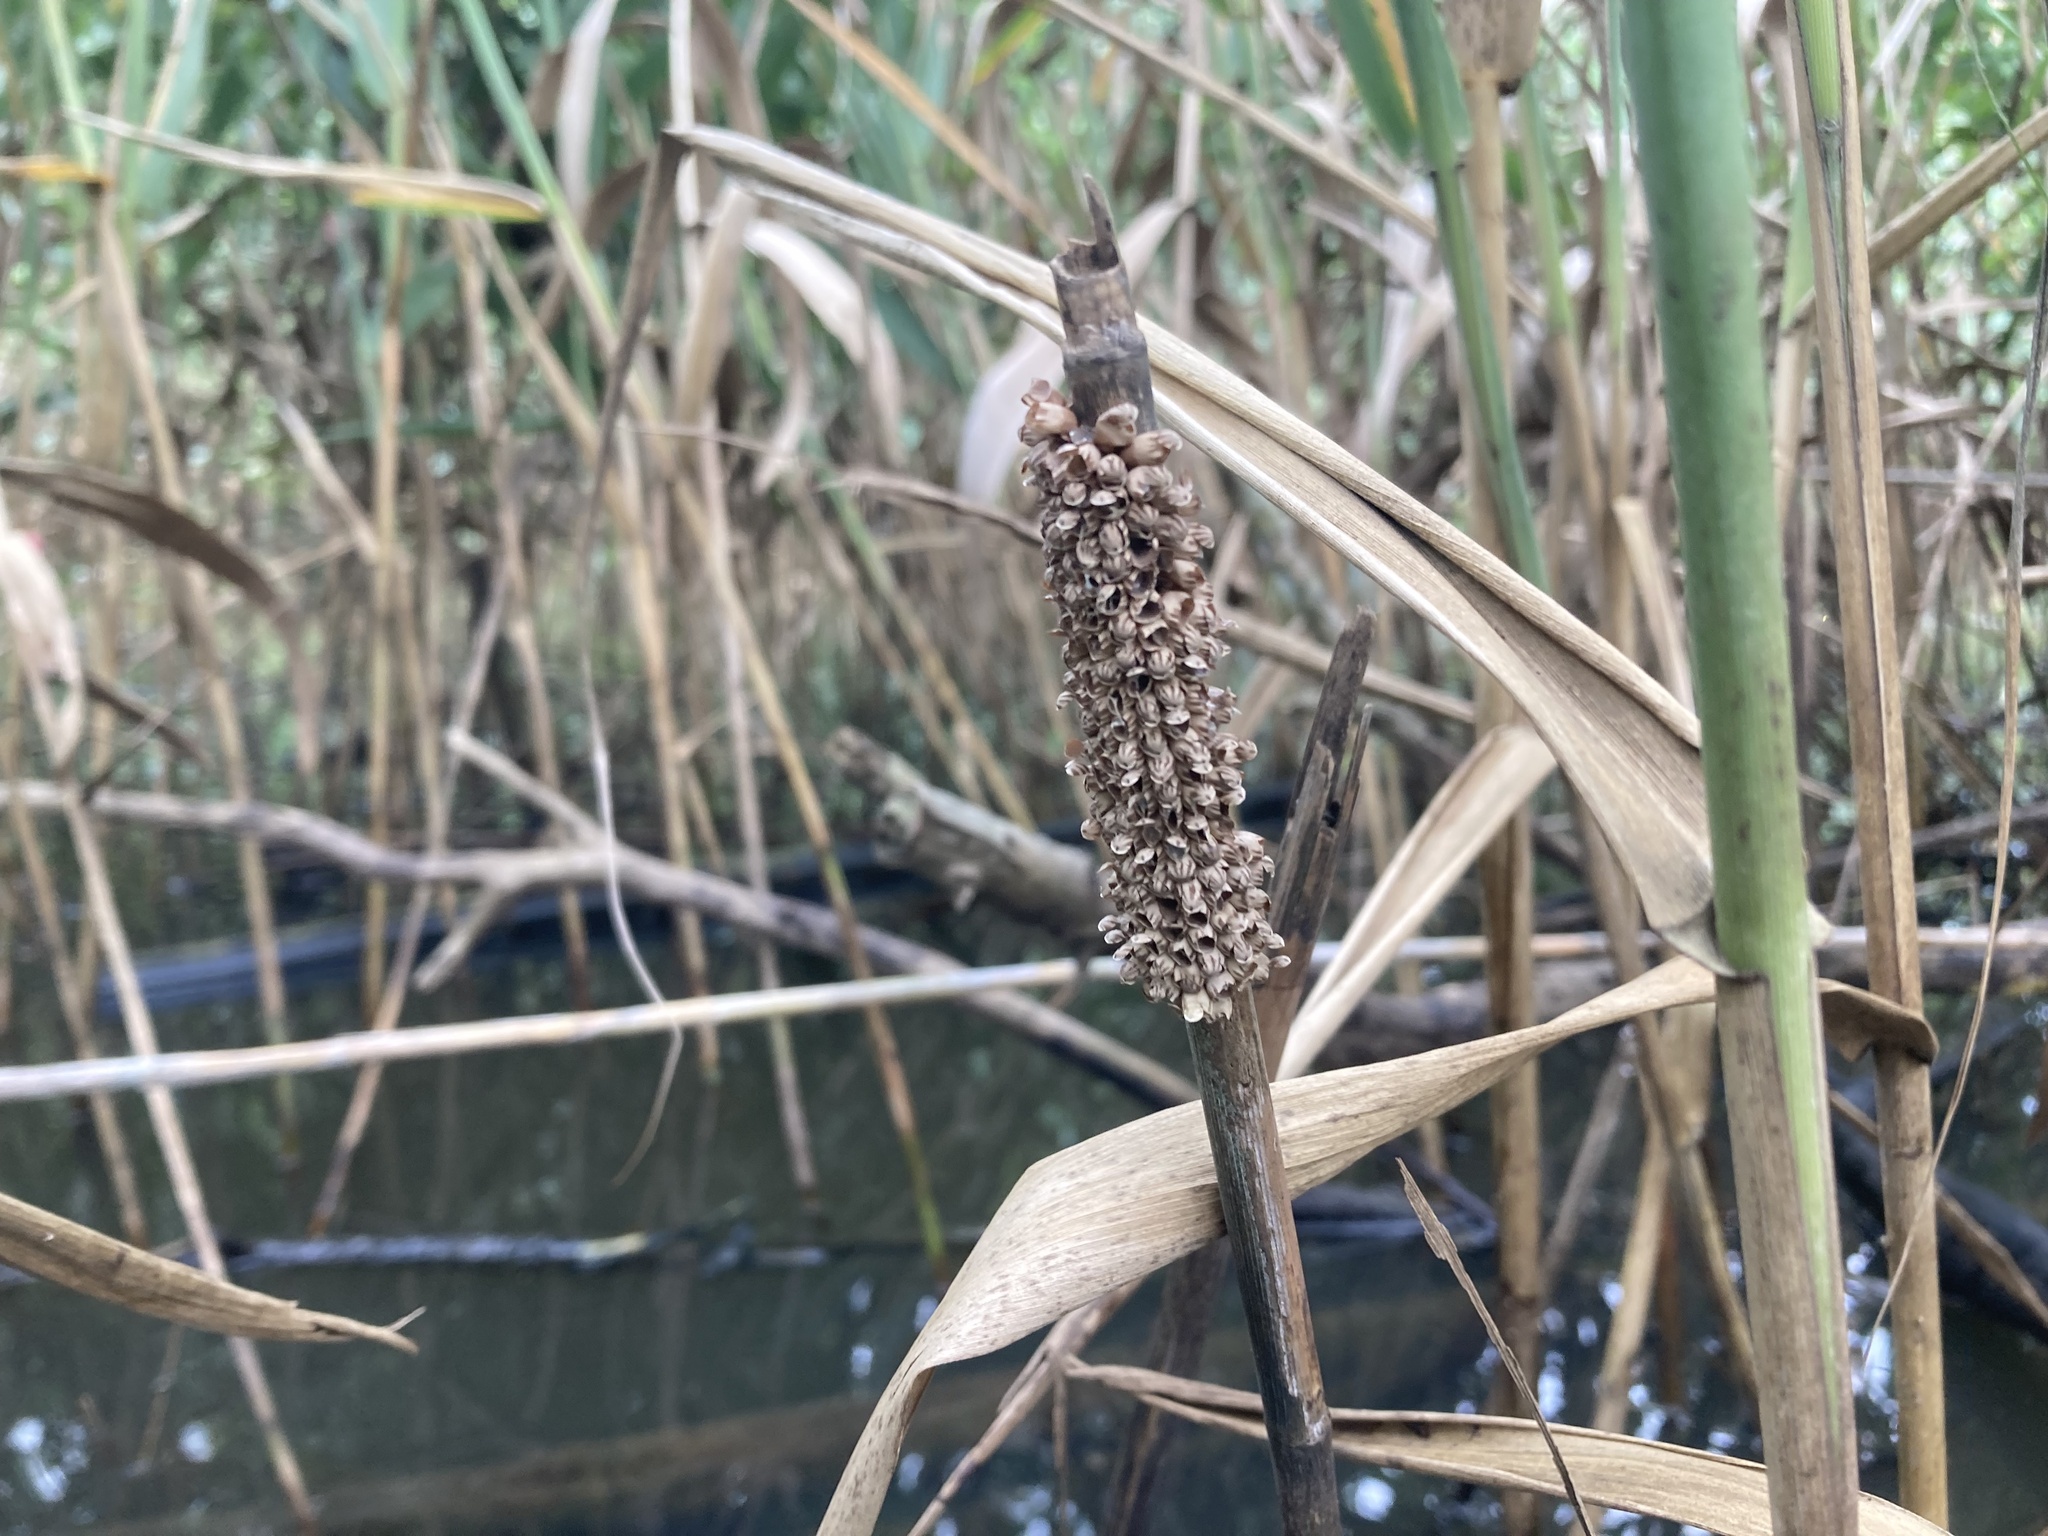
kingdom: Animalia
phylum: Arthropoda
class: Insecta
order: Hemiptera
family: Belostomatidae
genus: Lethocerus
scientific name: Lethocerus indicus
